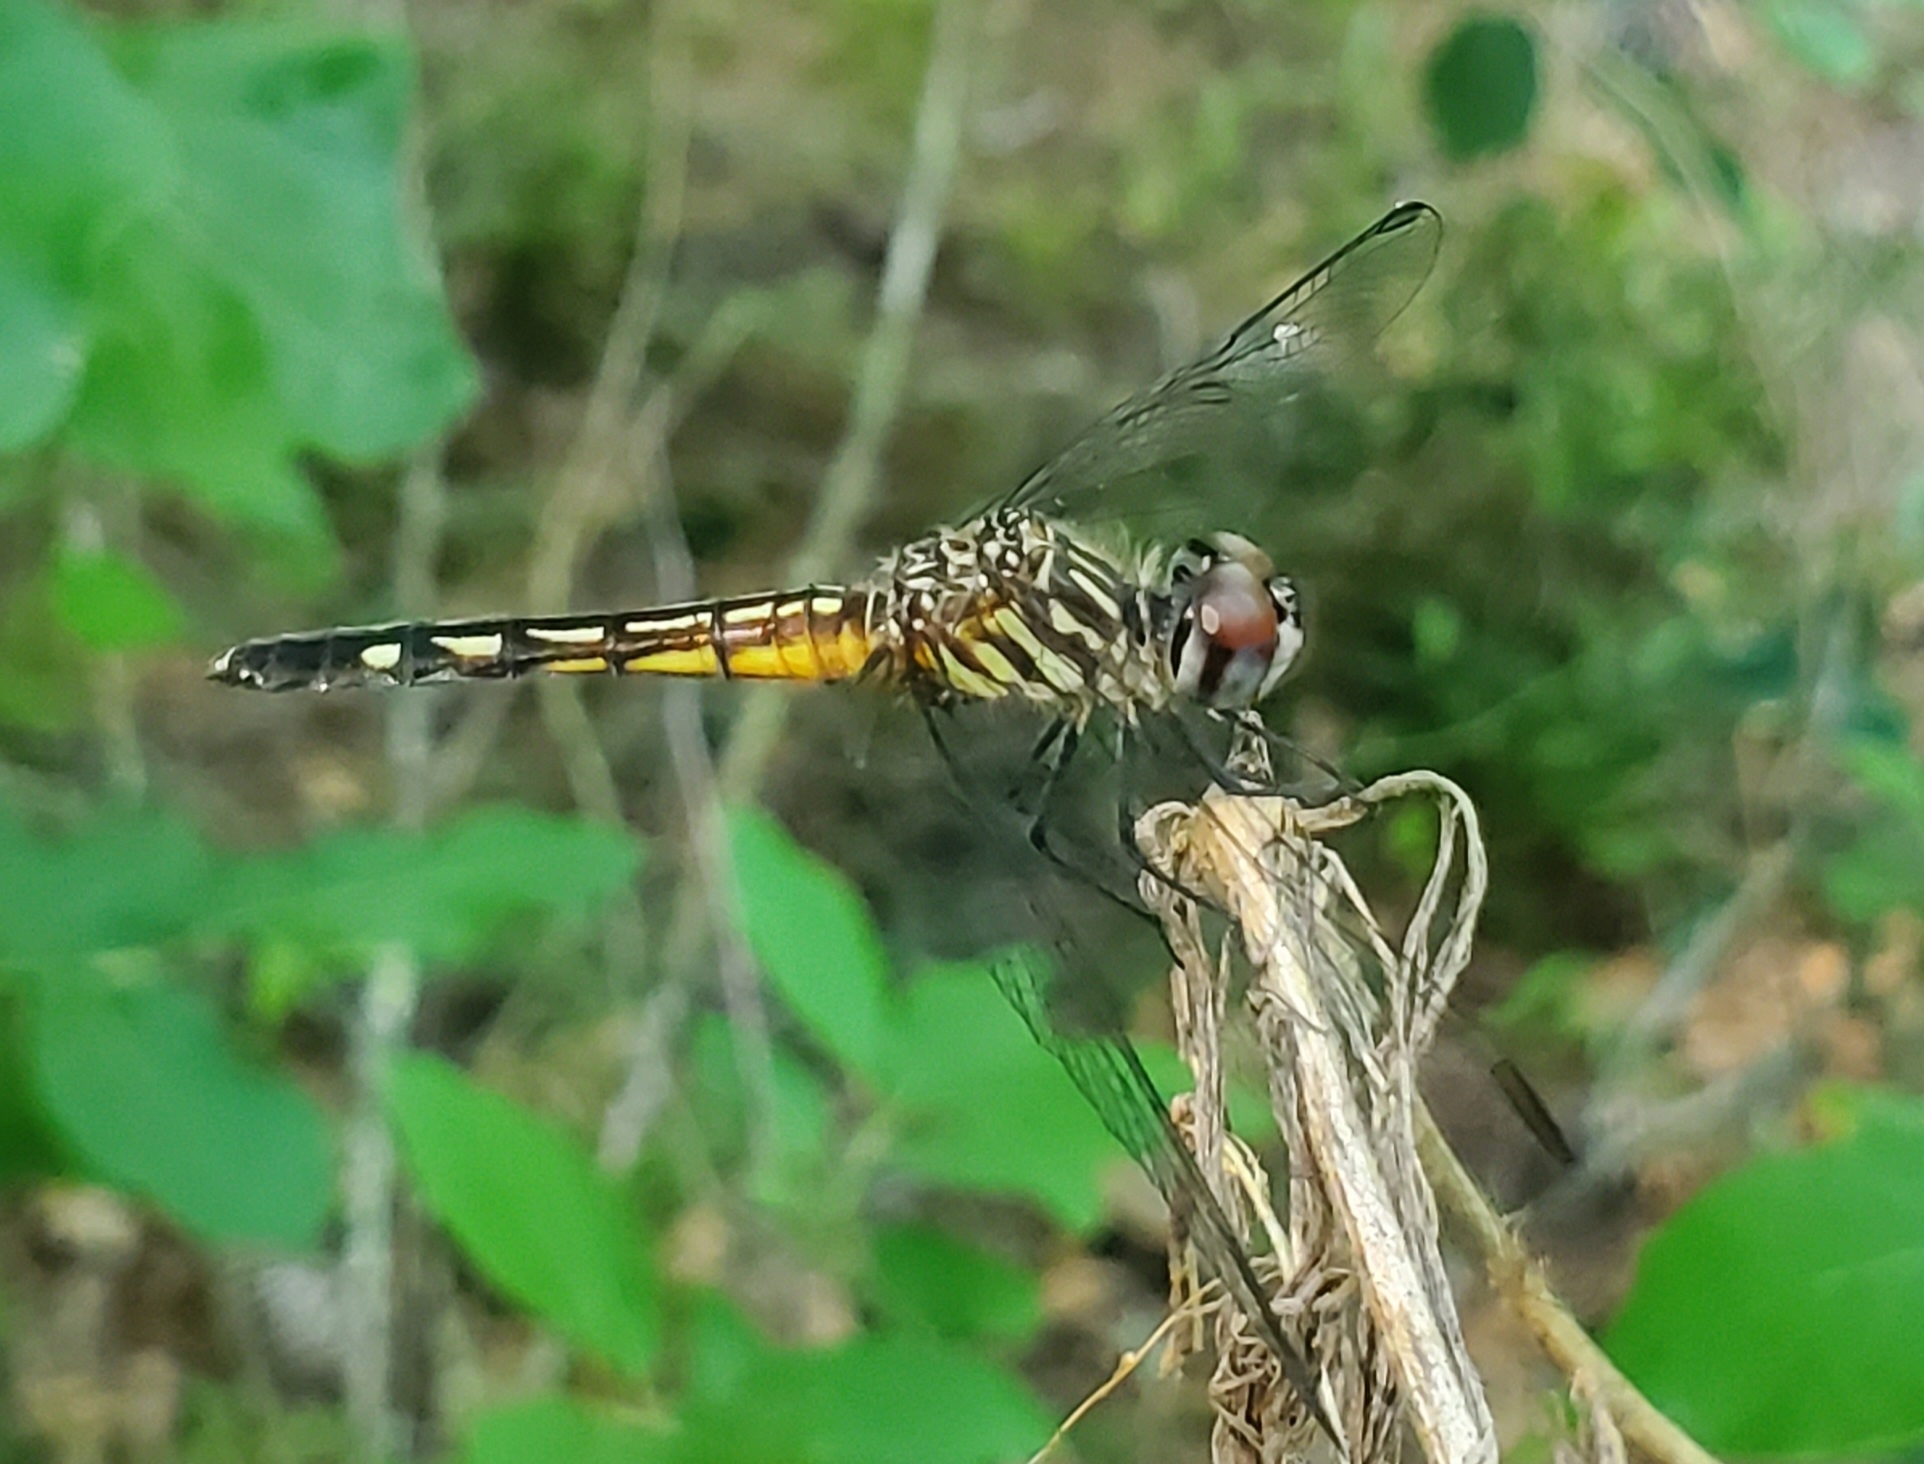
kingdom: Animalia
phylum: Arthropoda
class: Insecta
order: Odonata
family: Libellulidae
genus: Pachydiplax
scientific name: Pachydiplax longipennis
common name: Blue dasher
